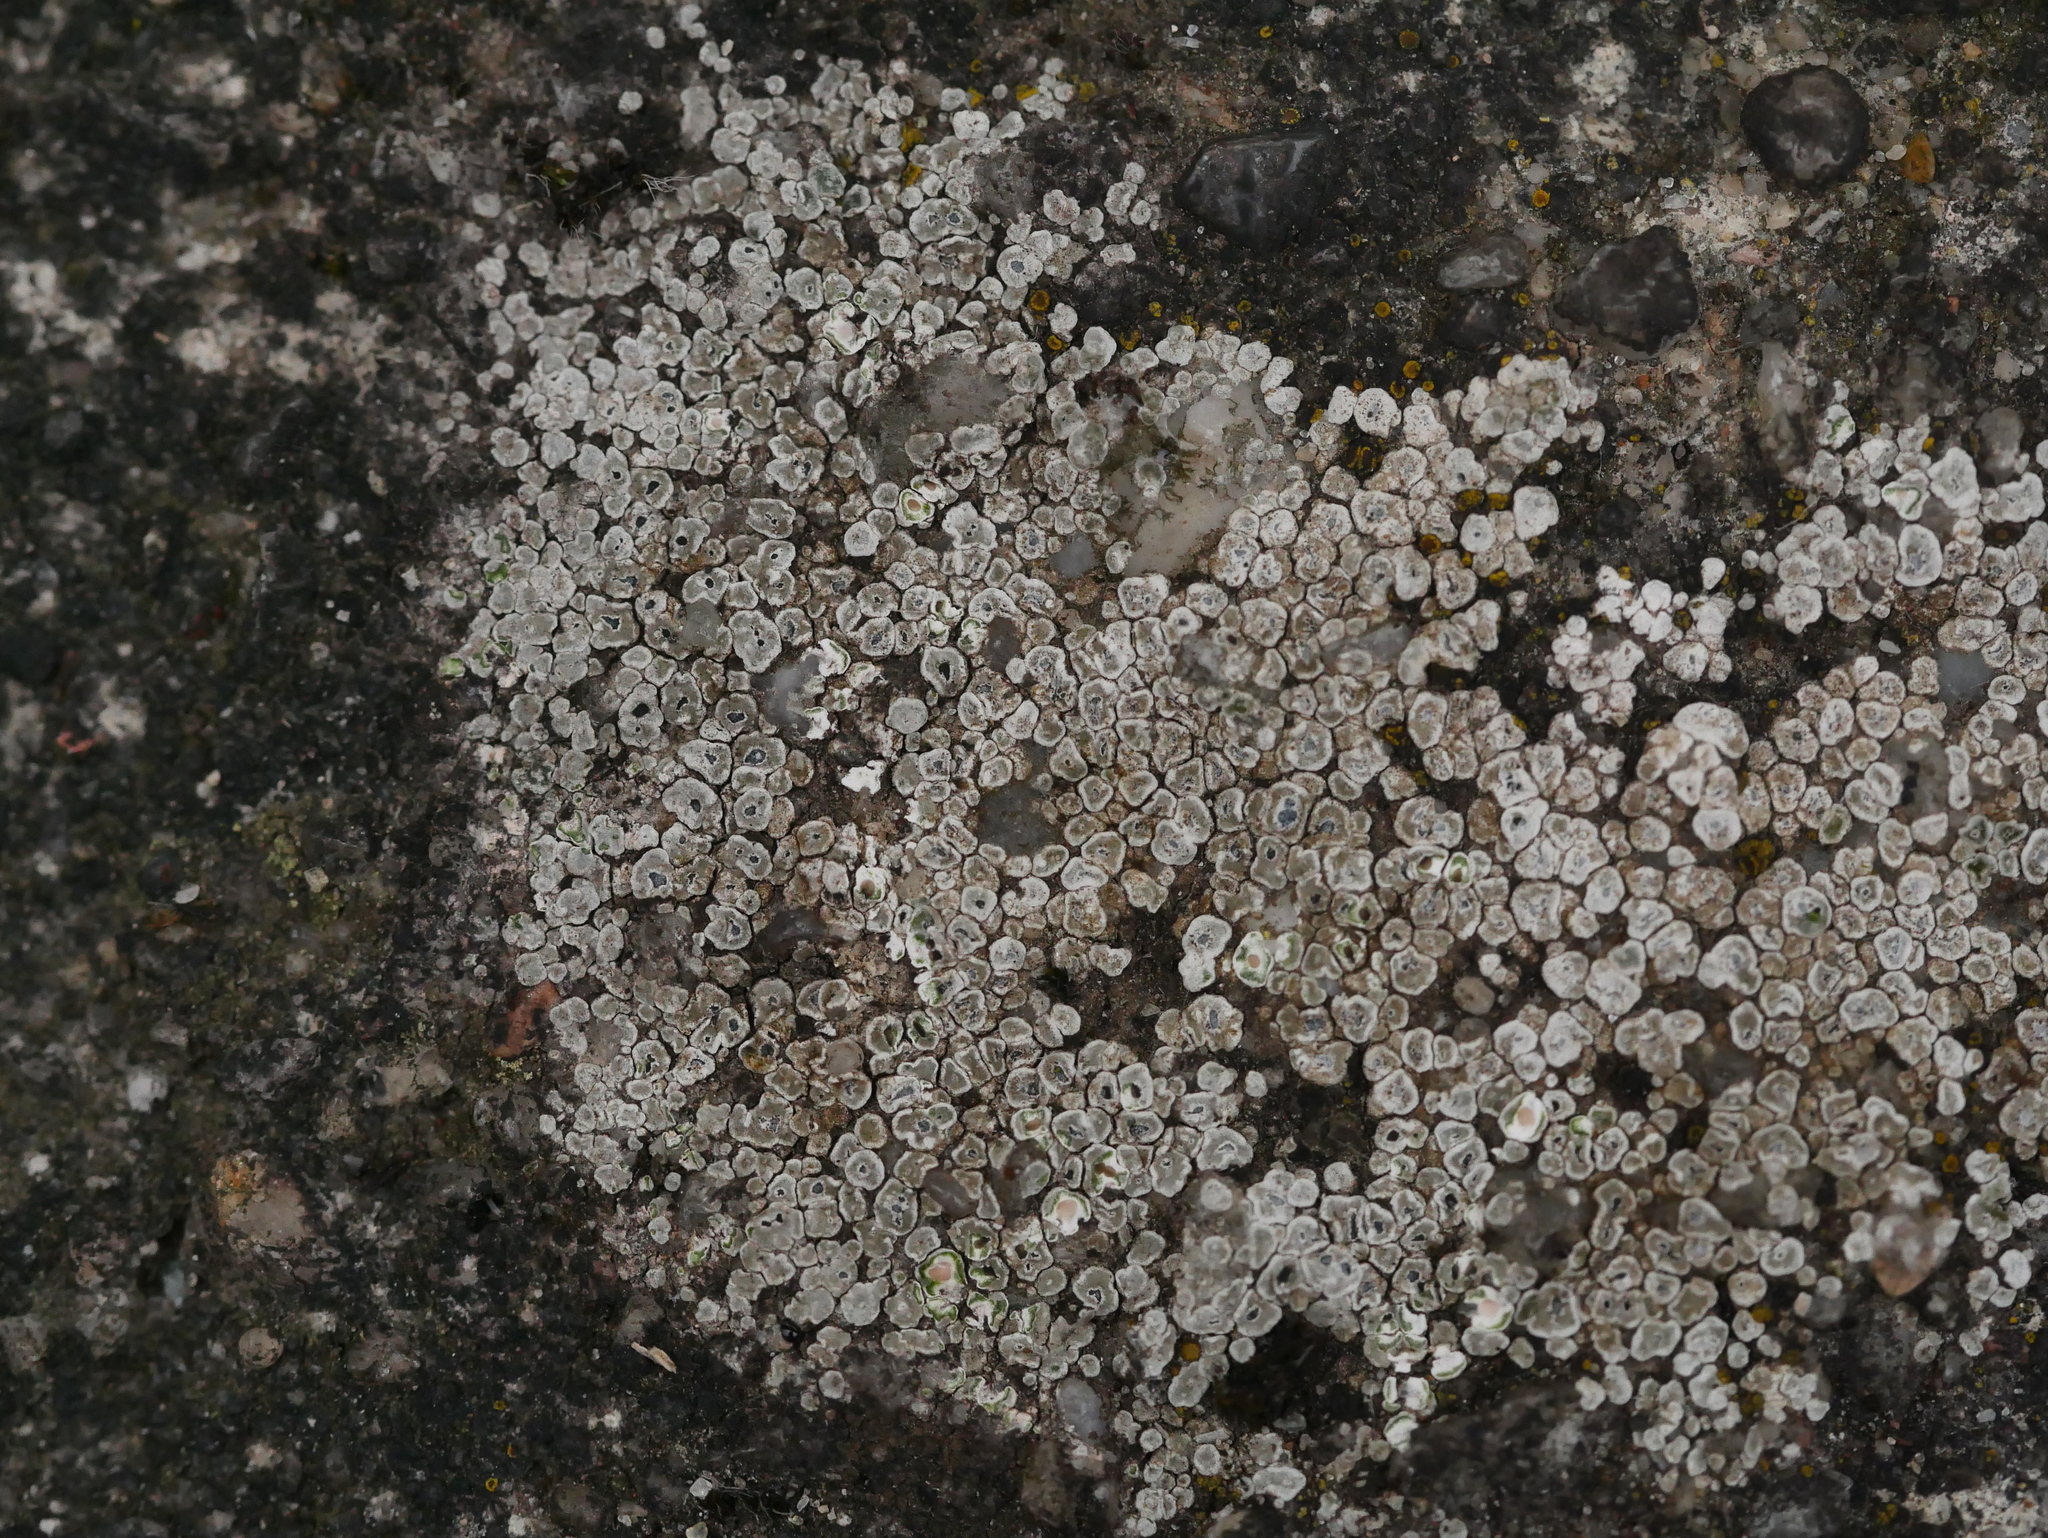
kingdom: Fungi
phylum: Ascomycota
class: Lecanoromycetes
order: Pertusariales
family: Megasporaceae
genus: Circinaria
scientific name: Circinaria contorta
